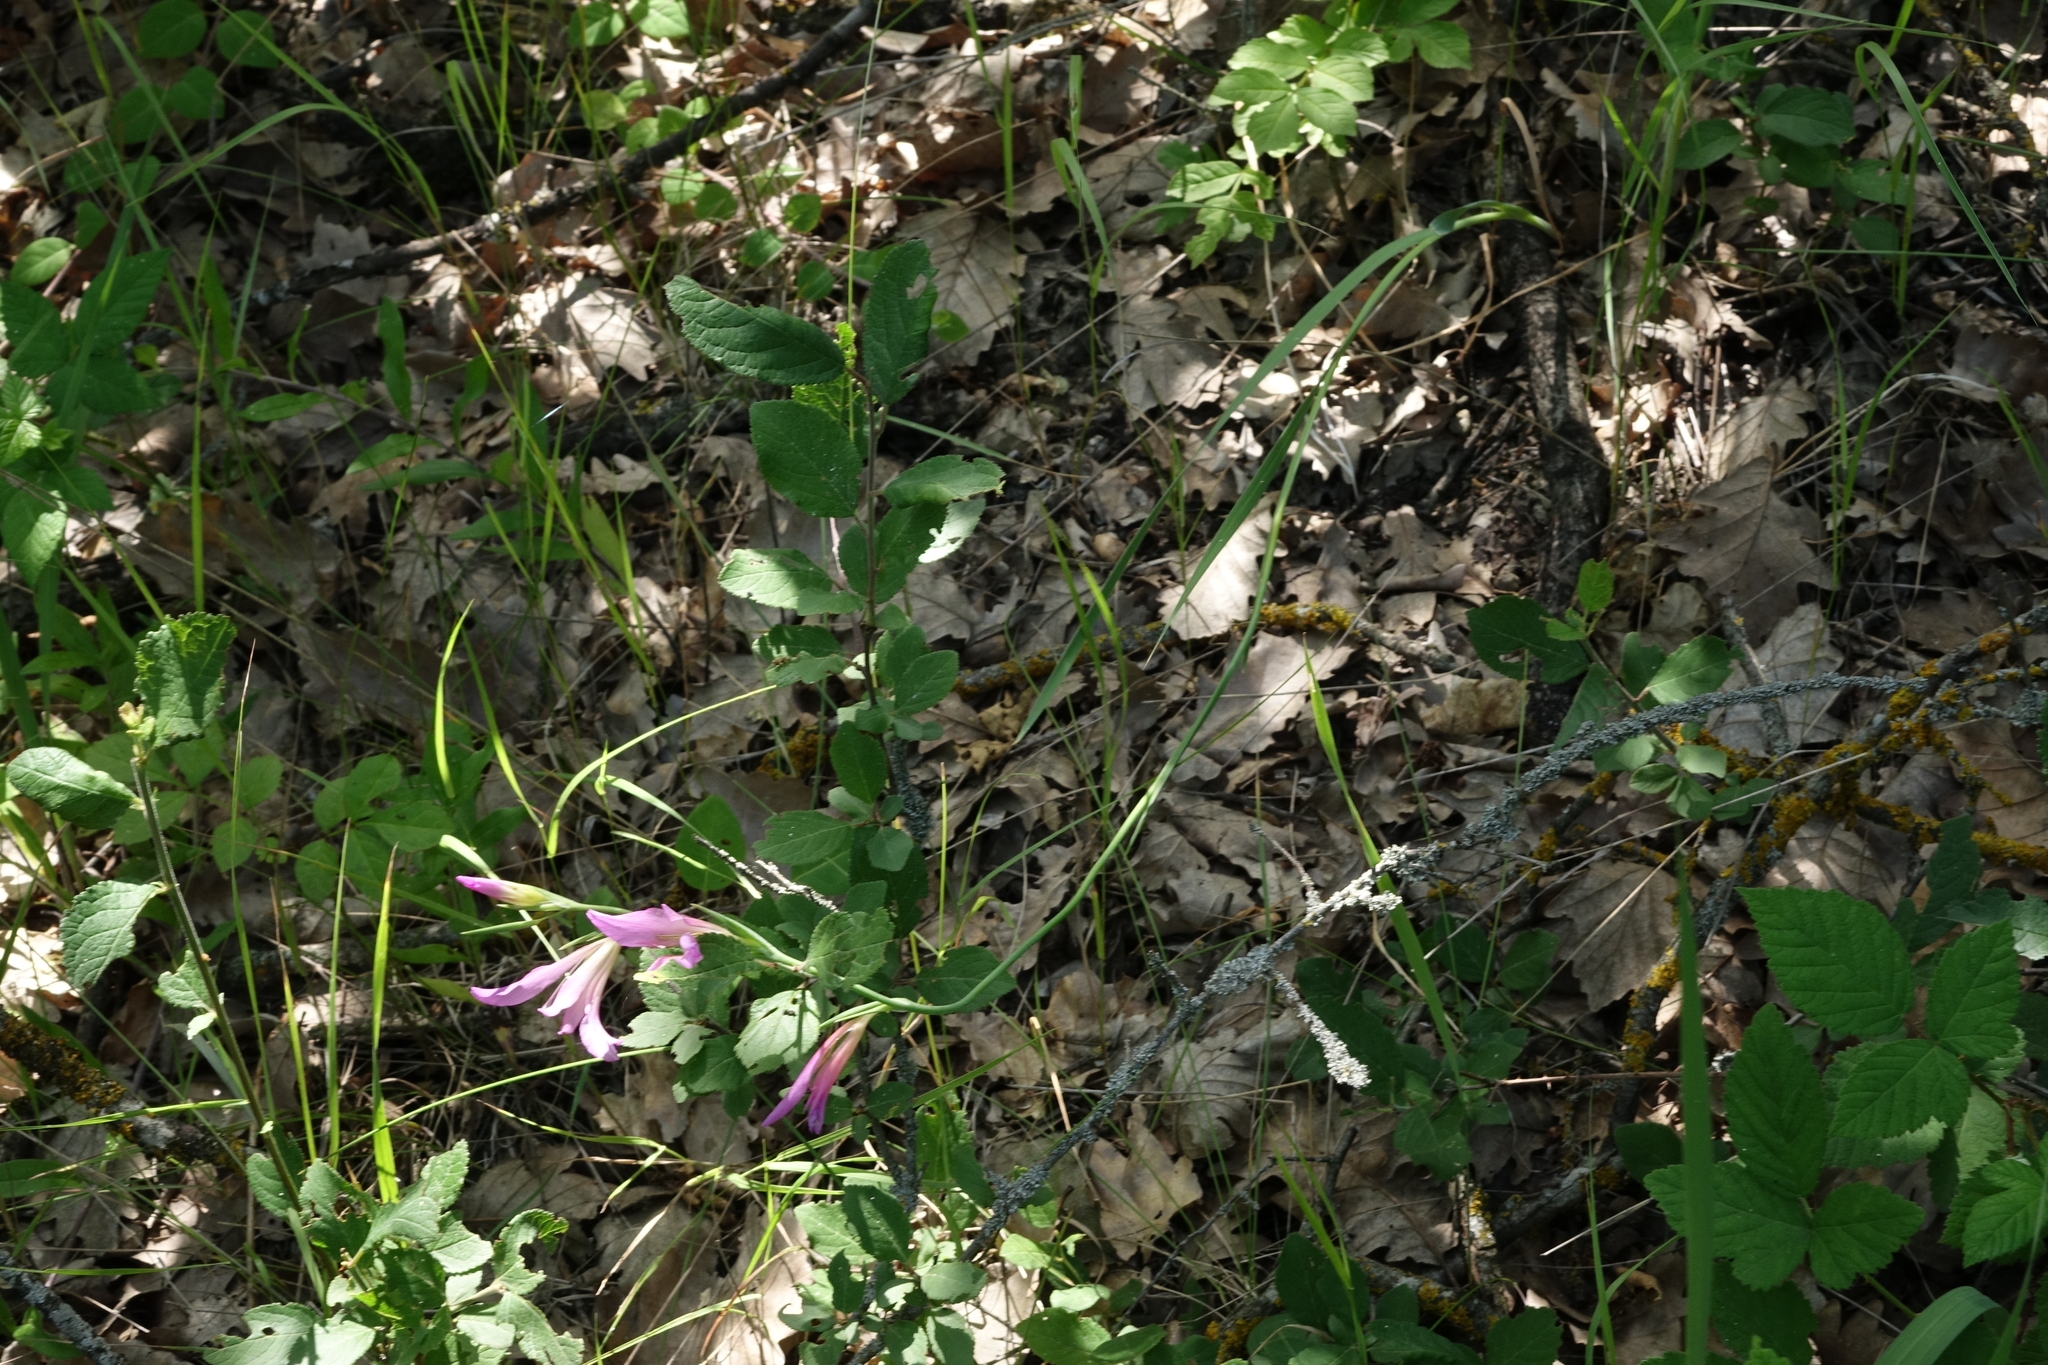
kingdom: Plantae
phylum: Tracheophyta
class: Liliopsida
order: Asparagales
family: Iridaceae
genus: Gladiolus
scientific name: Gladiolus italicus
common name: Field gladiolus
